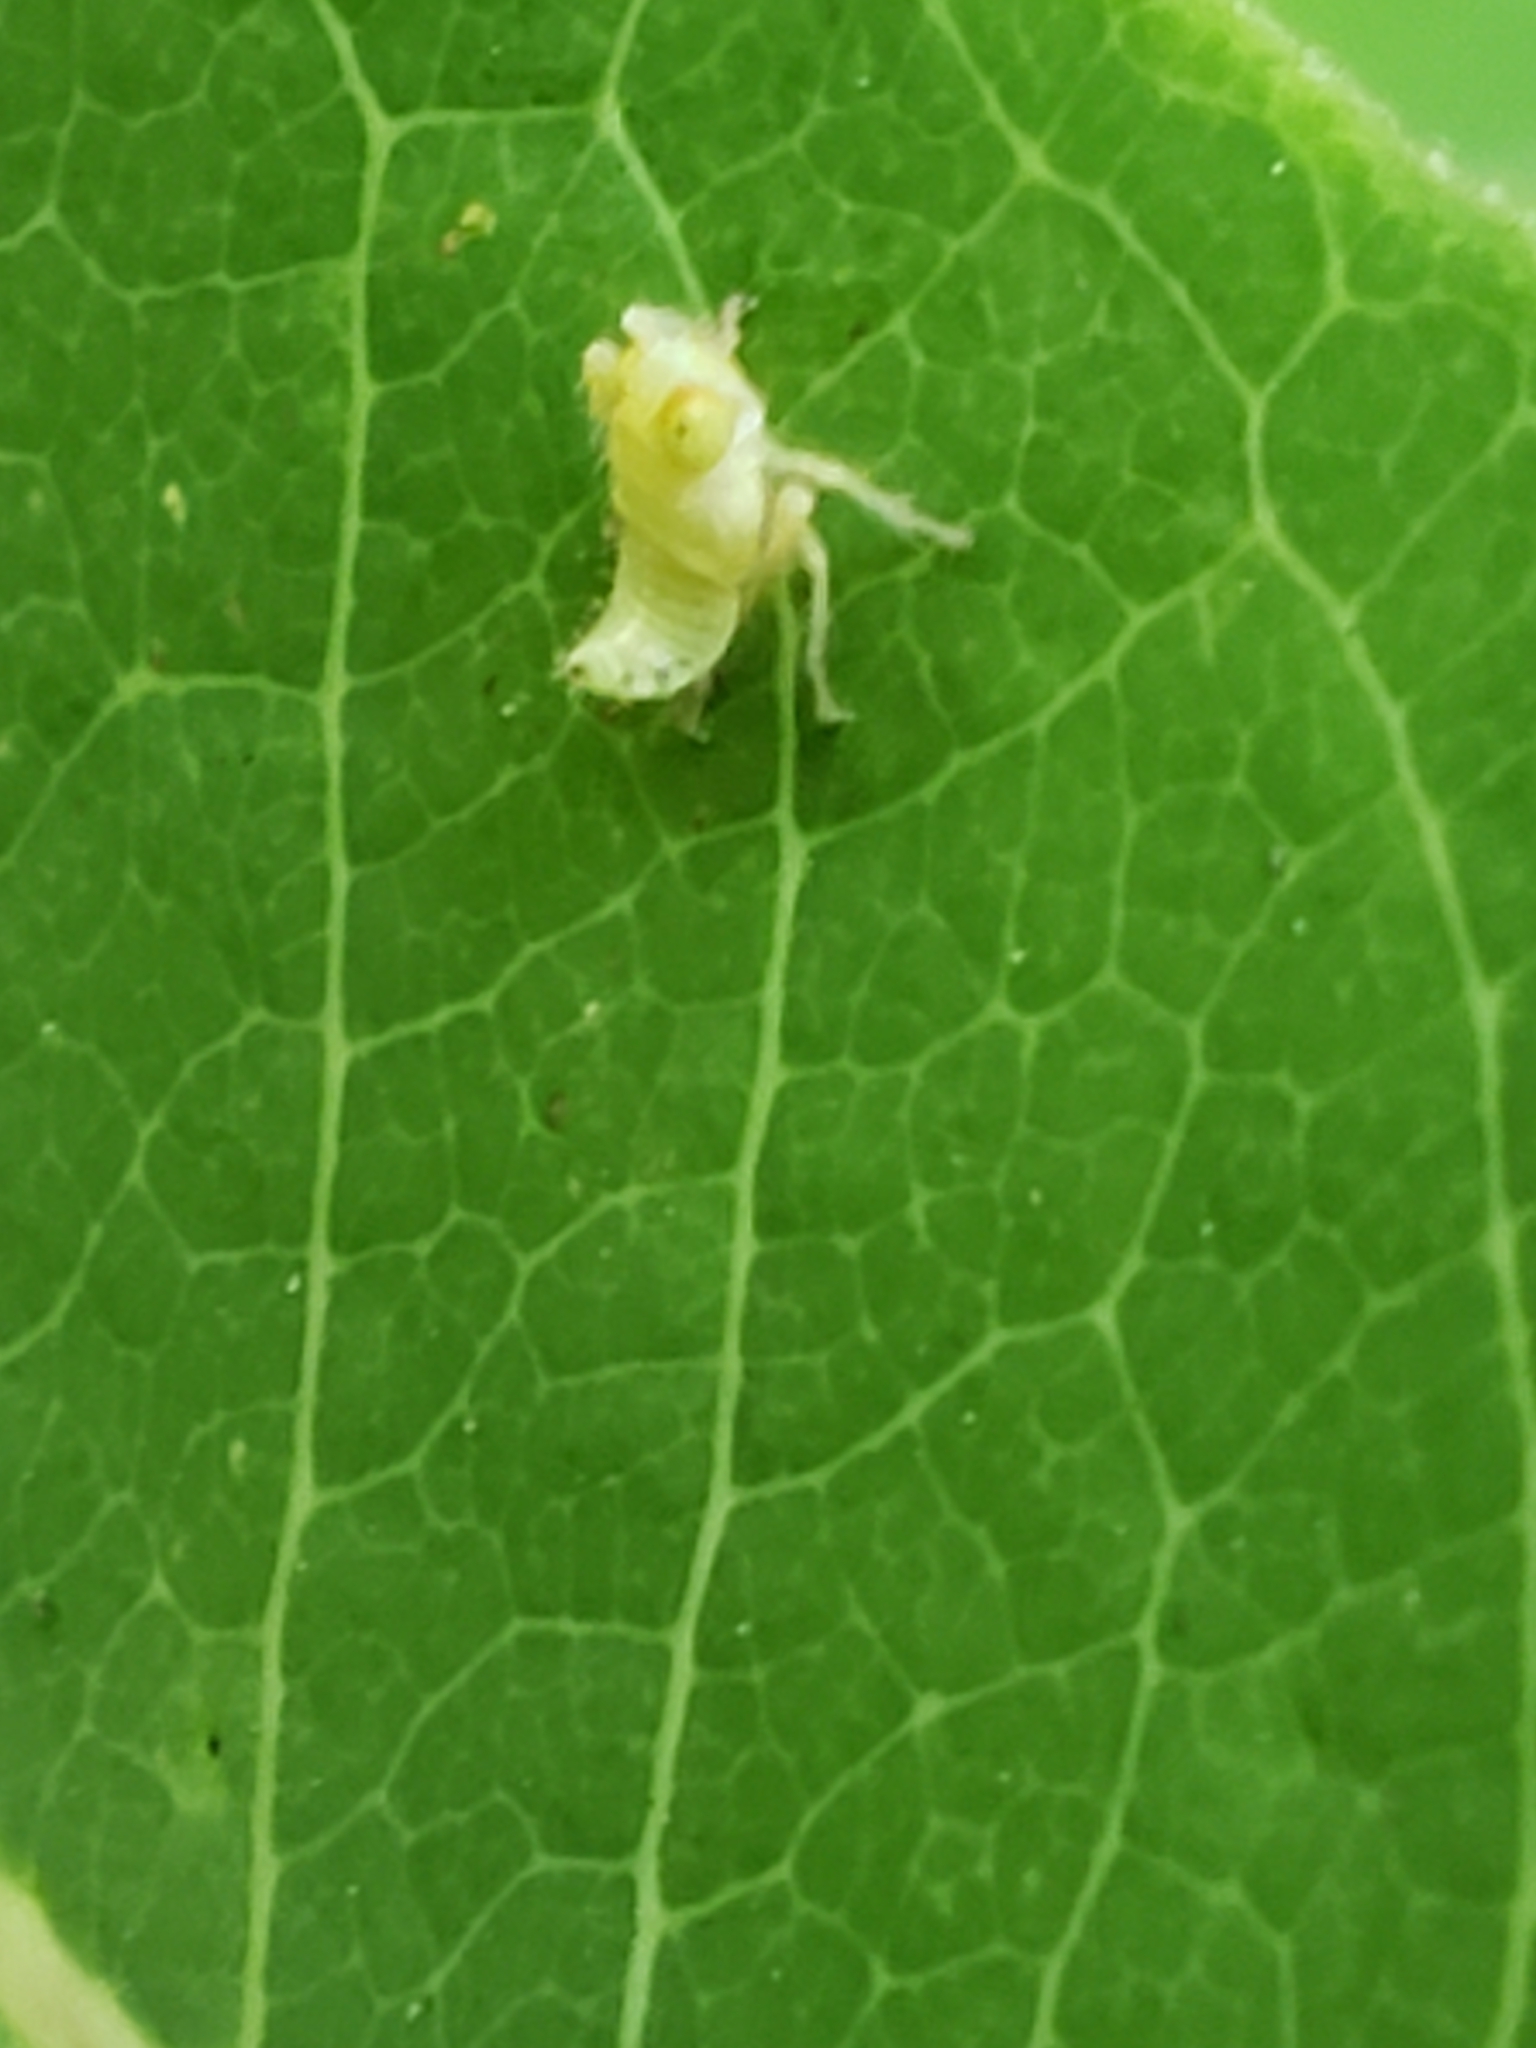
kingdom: Animalia
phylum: Arthropoda
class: Insecta
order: Hemiptera
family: Cicadellidae
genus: Jikradia
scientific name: Jikradia olitoria
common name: Coppery leafhopper
